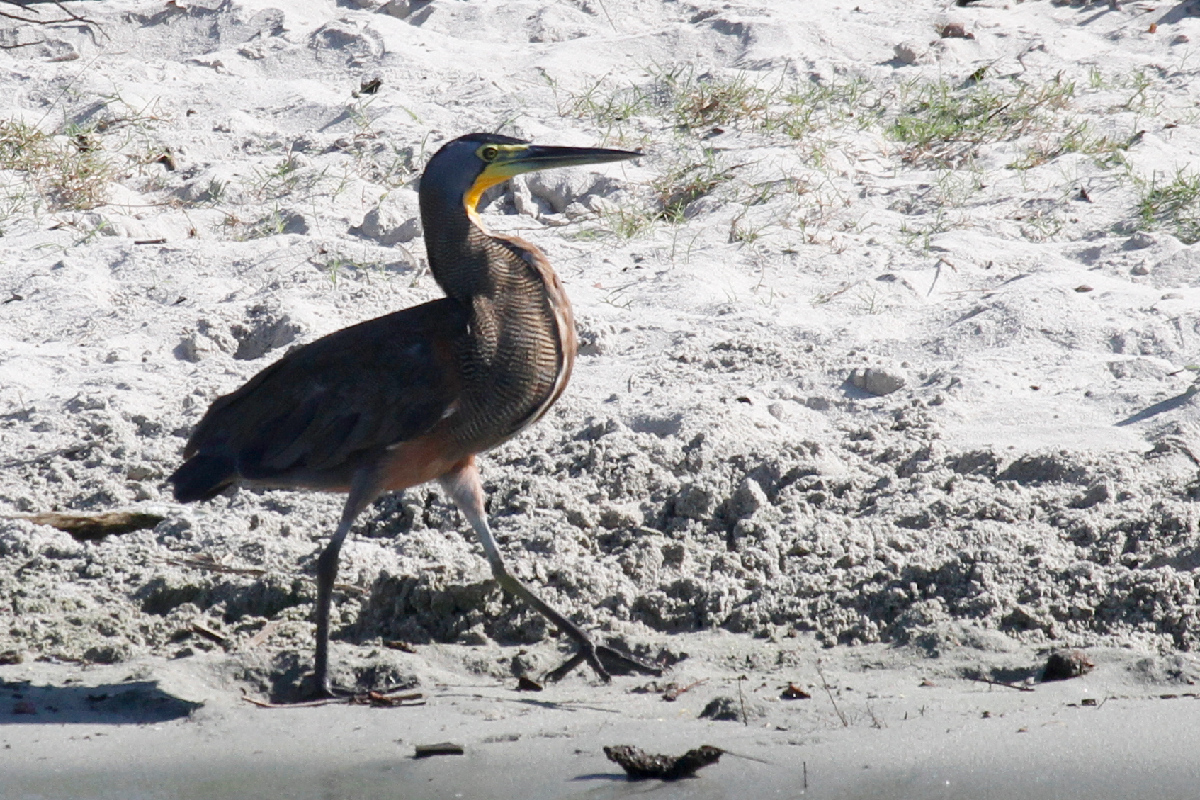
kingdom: Animalia
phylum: Chordata
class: Aves
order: Pelecaniformes
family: Ardeidae
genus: Tigrisoma
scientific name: Tigrisoma mexicanum
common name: Bare-throated tiger-heron
